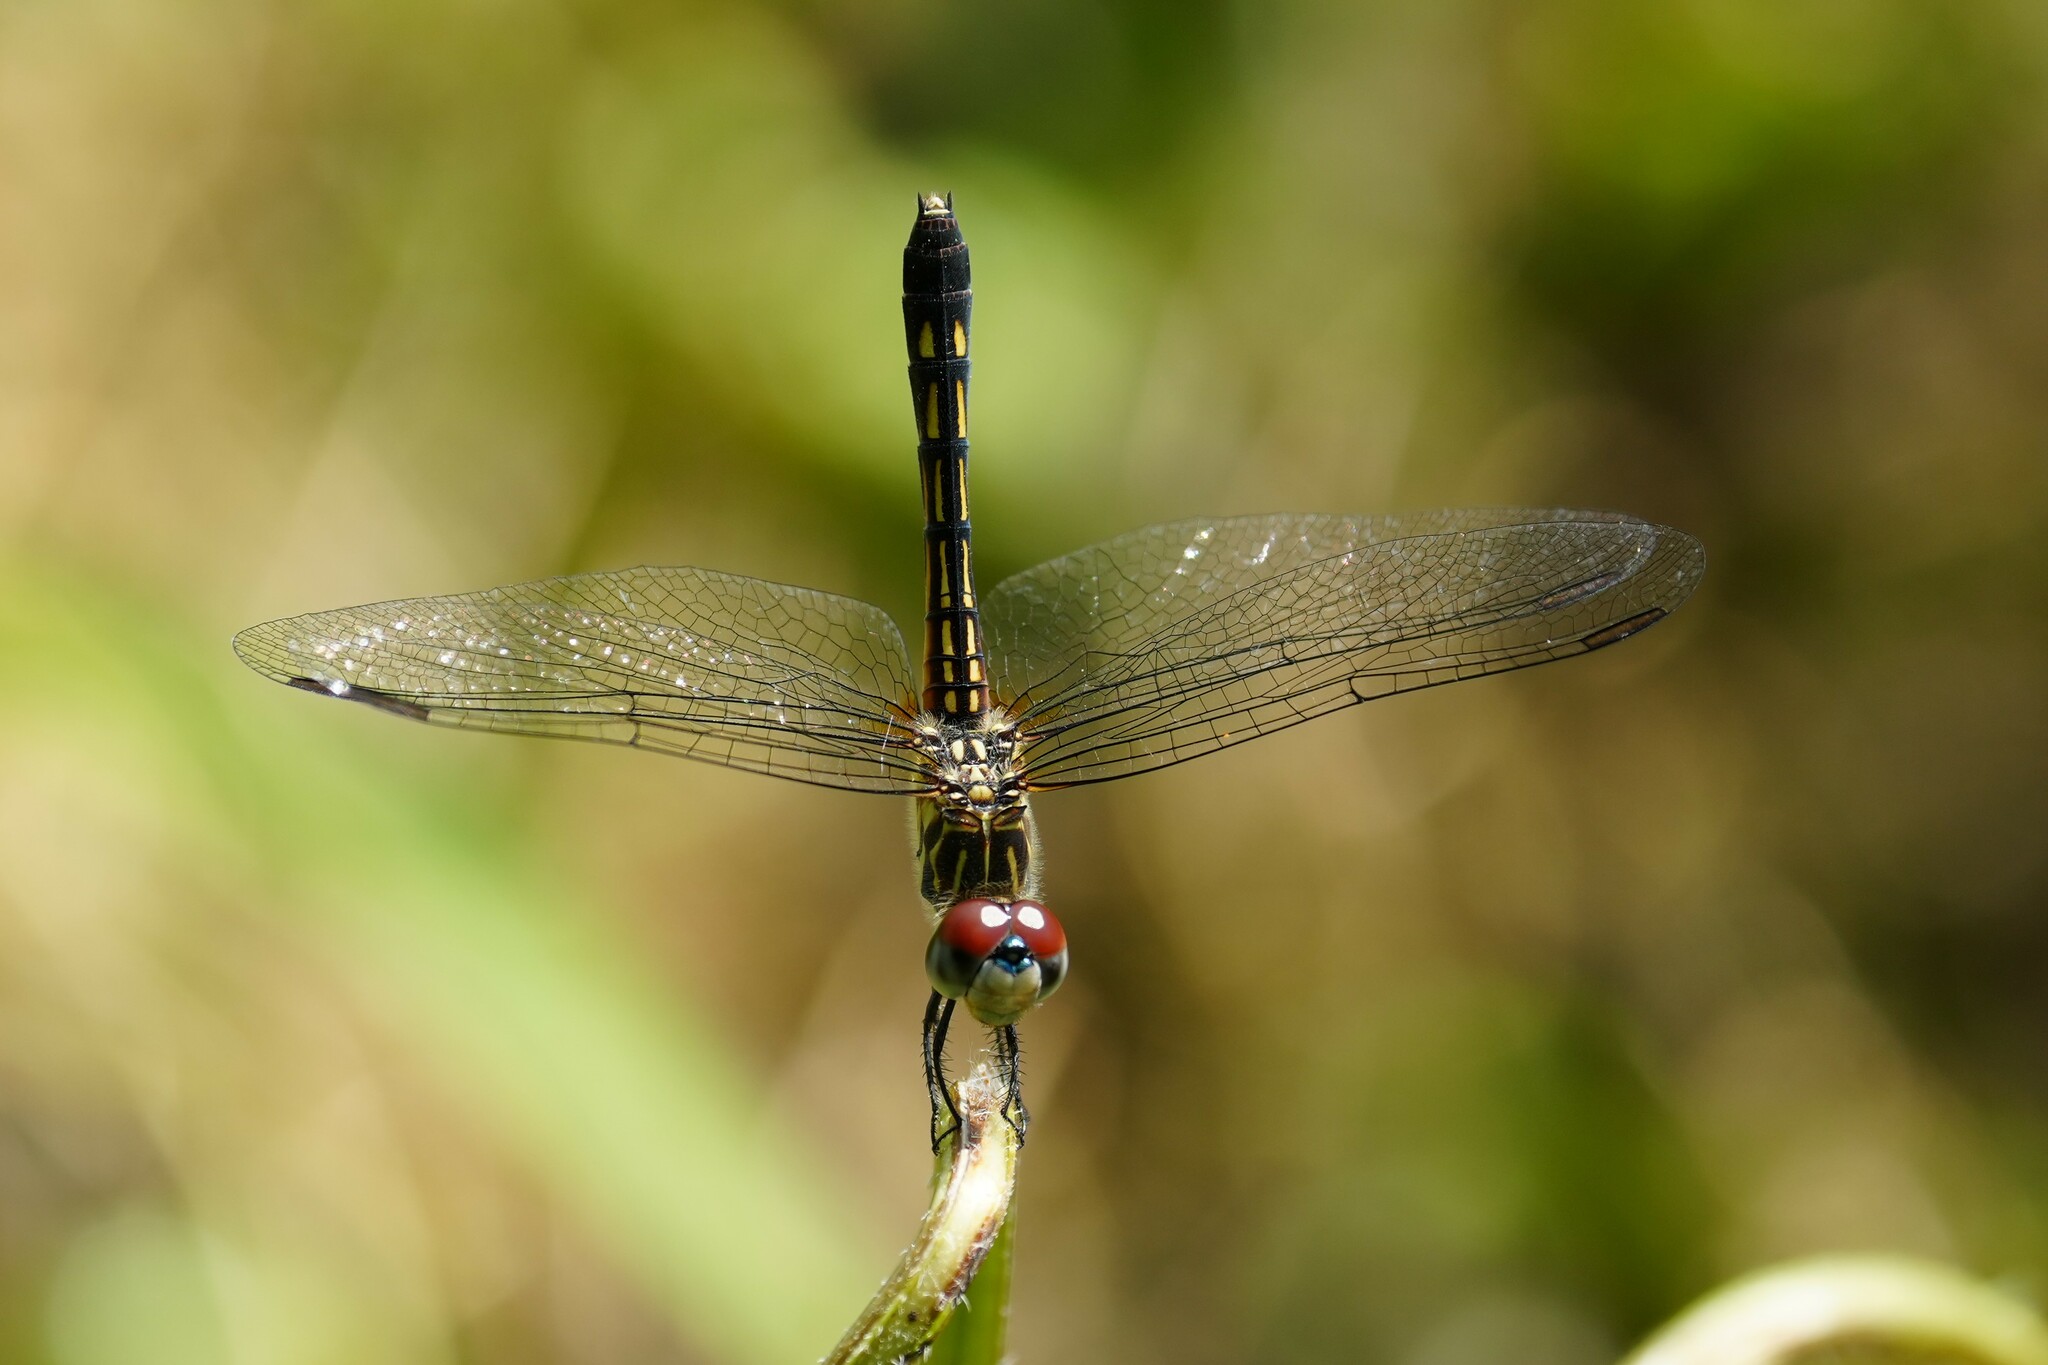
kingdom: Animalia
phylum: Arthropoda
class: Insecta
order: Odonata
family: Libellulidae
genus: Pachydiplax
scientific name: Pachydiplax longipennis
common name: Blue dasher
